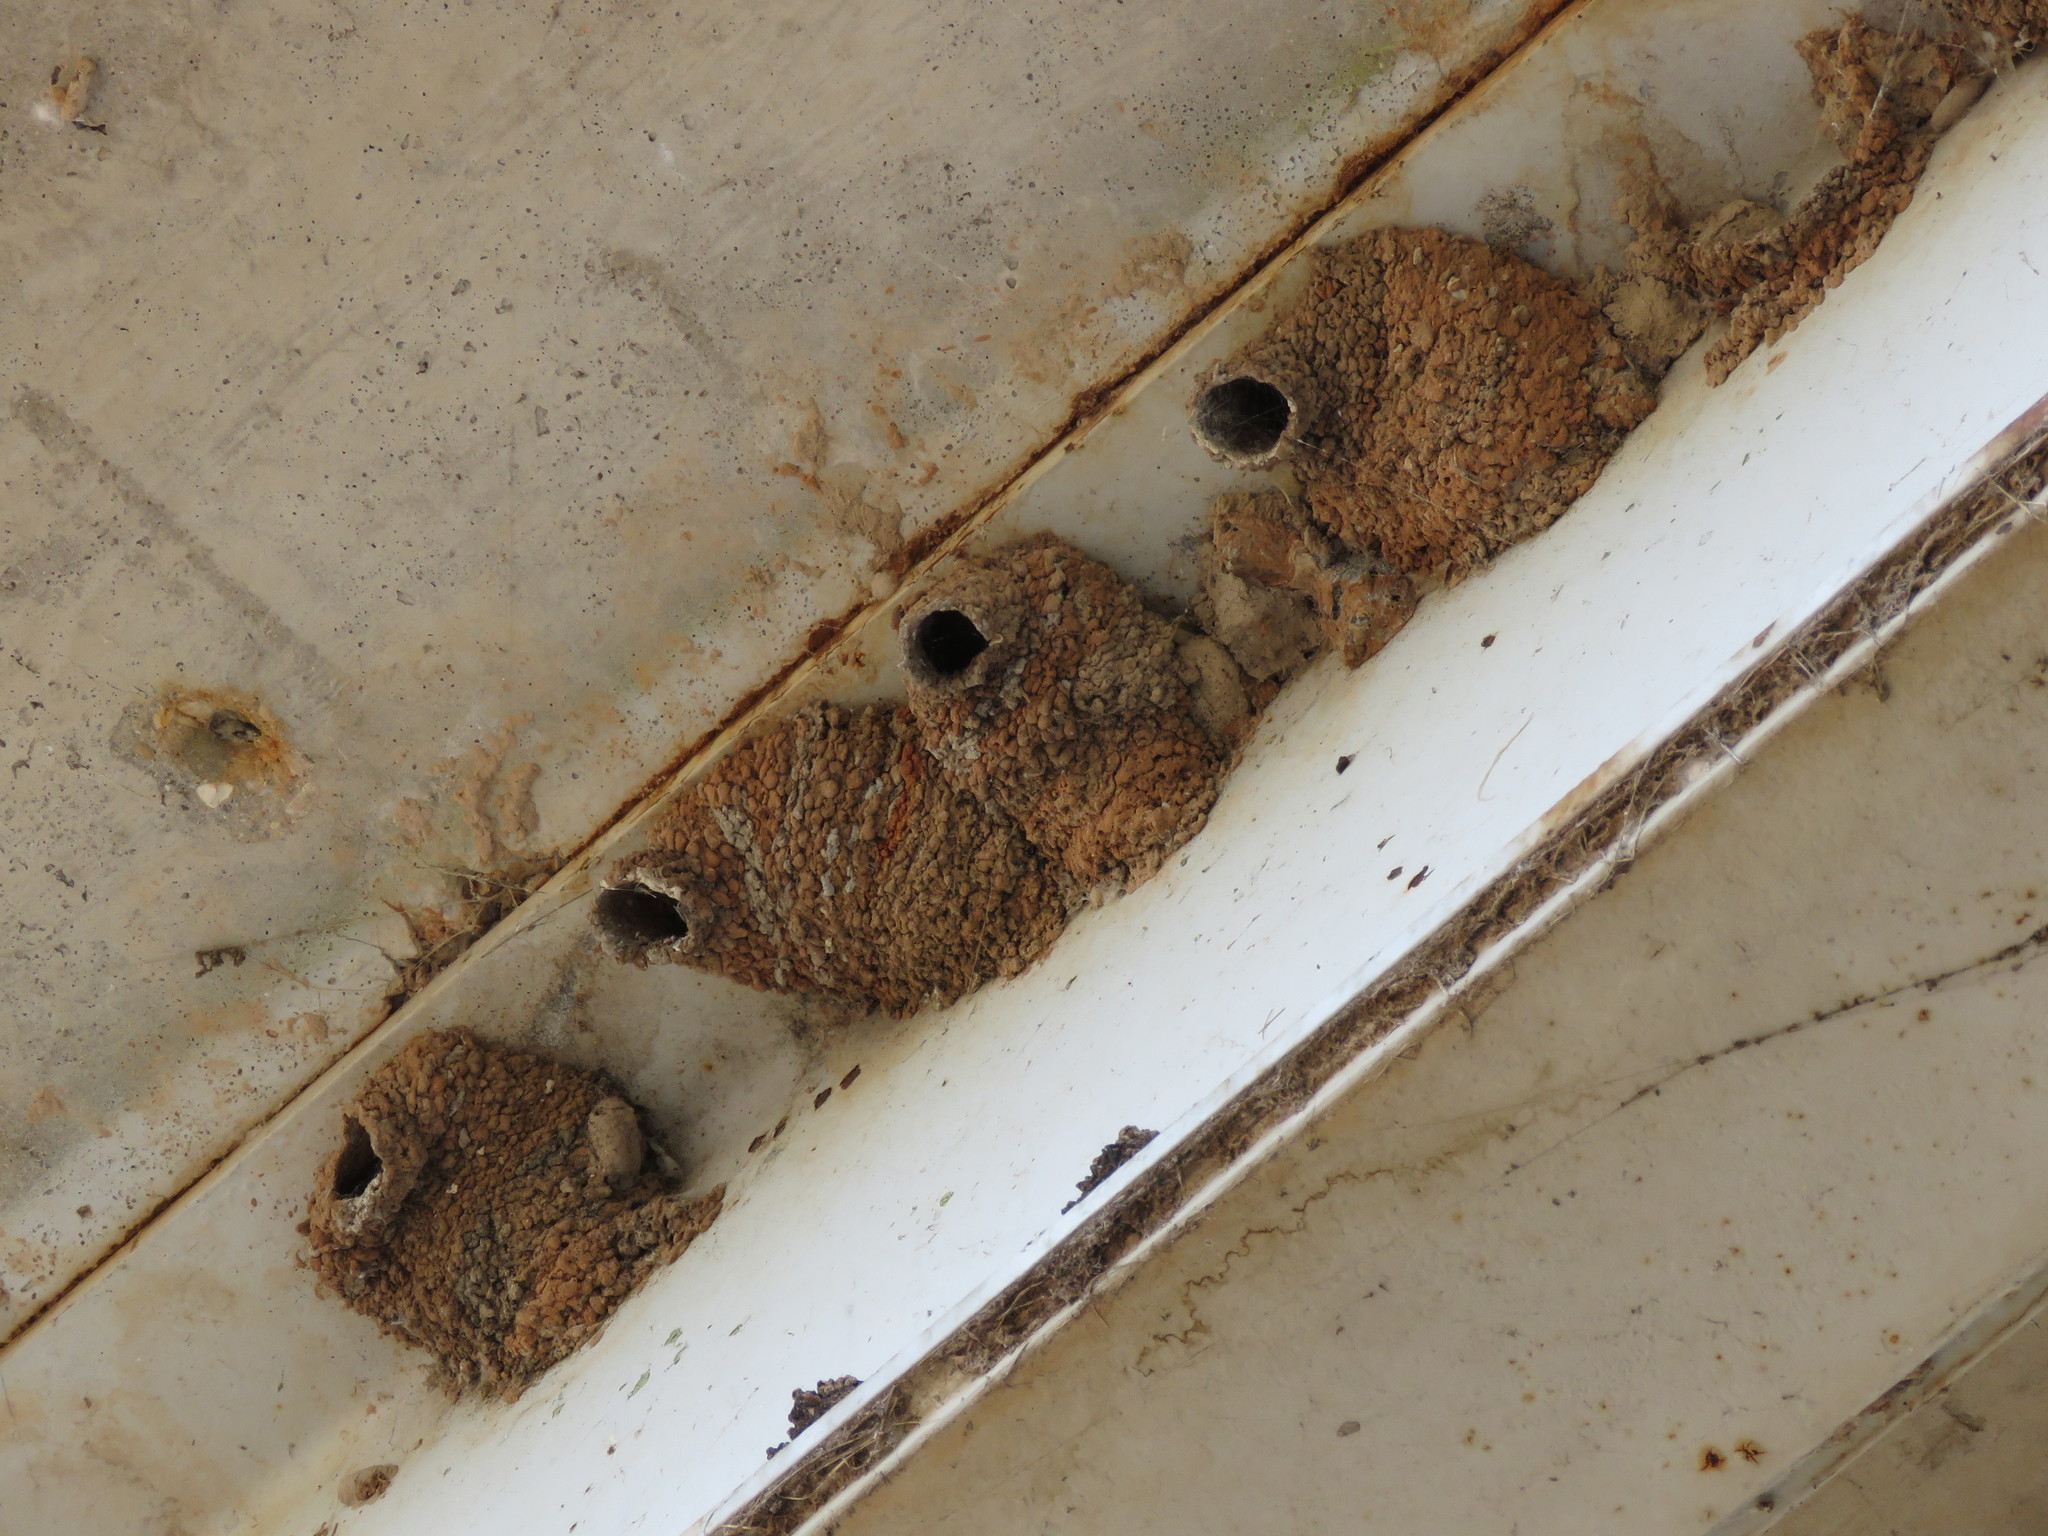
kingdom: Animalia
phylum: Chordata
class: Aves
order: Passeriformes
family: Hirundinidae
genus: Petrochelidon
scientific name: Petrochelidon pyrrhonota
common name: American cliff swallow
